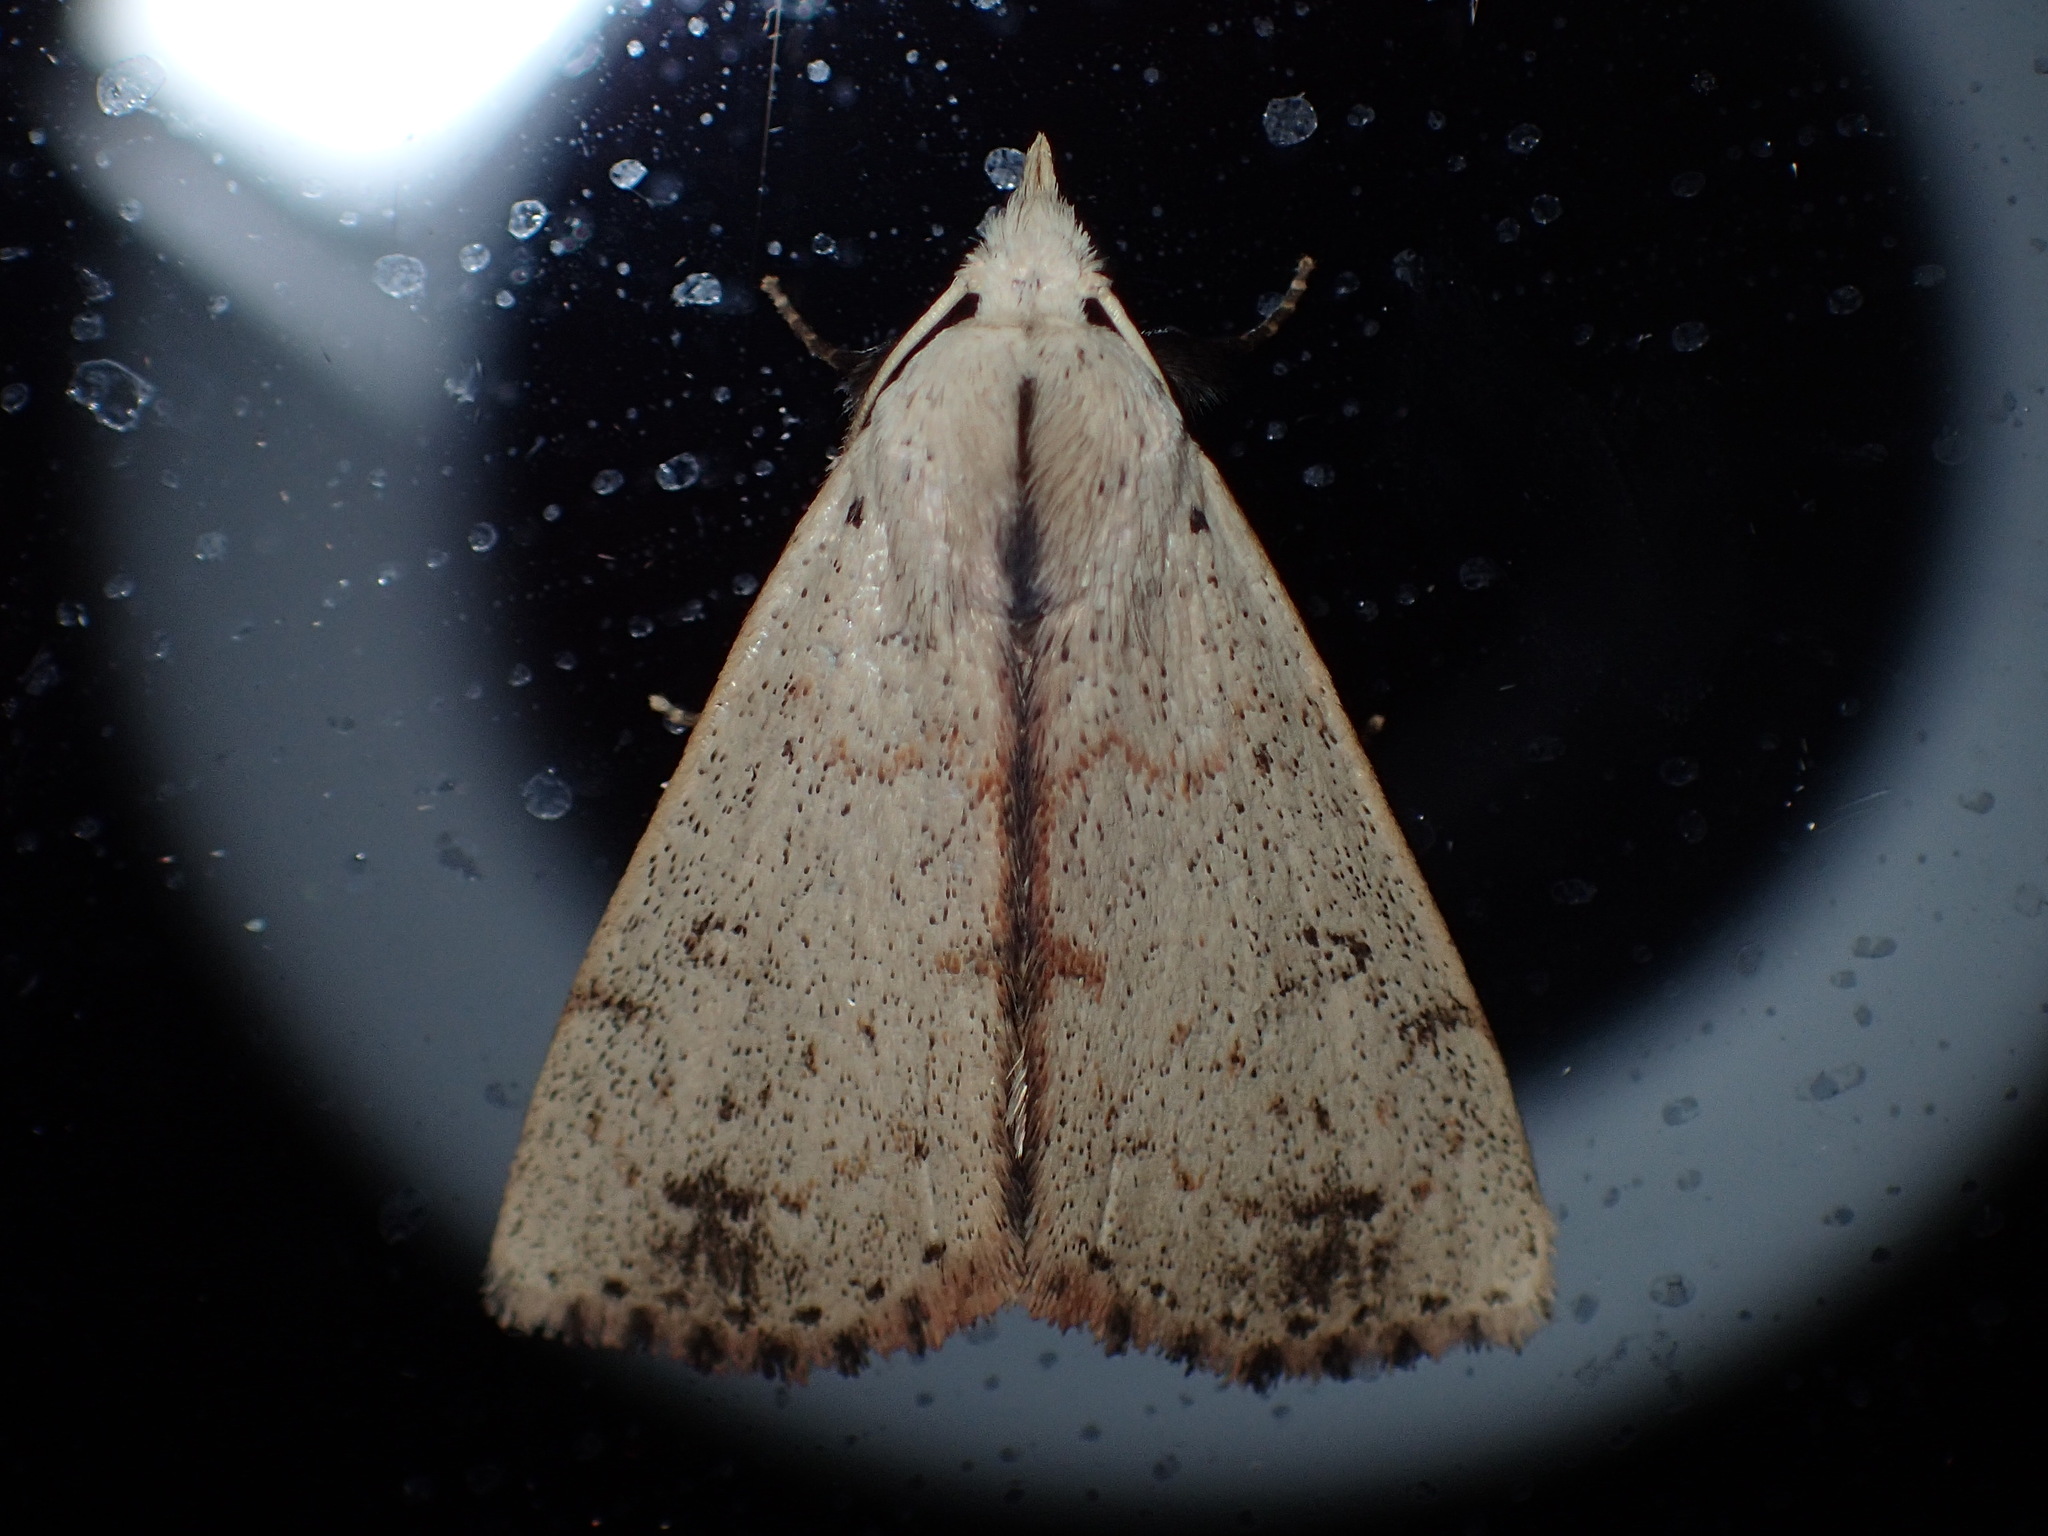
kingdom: Animalia
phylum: Arthropoda
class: Insecta
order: Lepidoptera
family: Erebidae
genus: Scolecocampa
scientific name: Scolecocampa liburna
